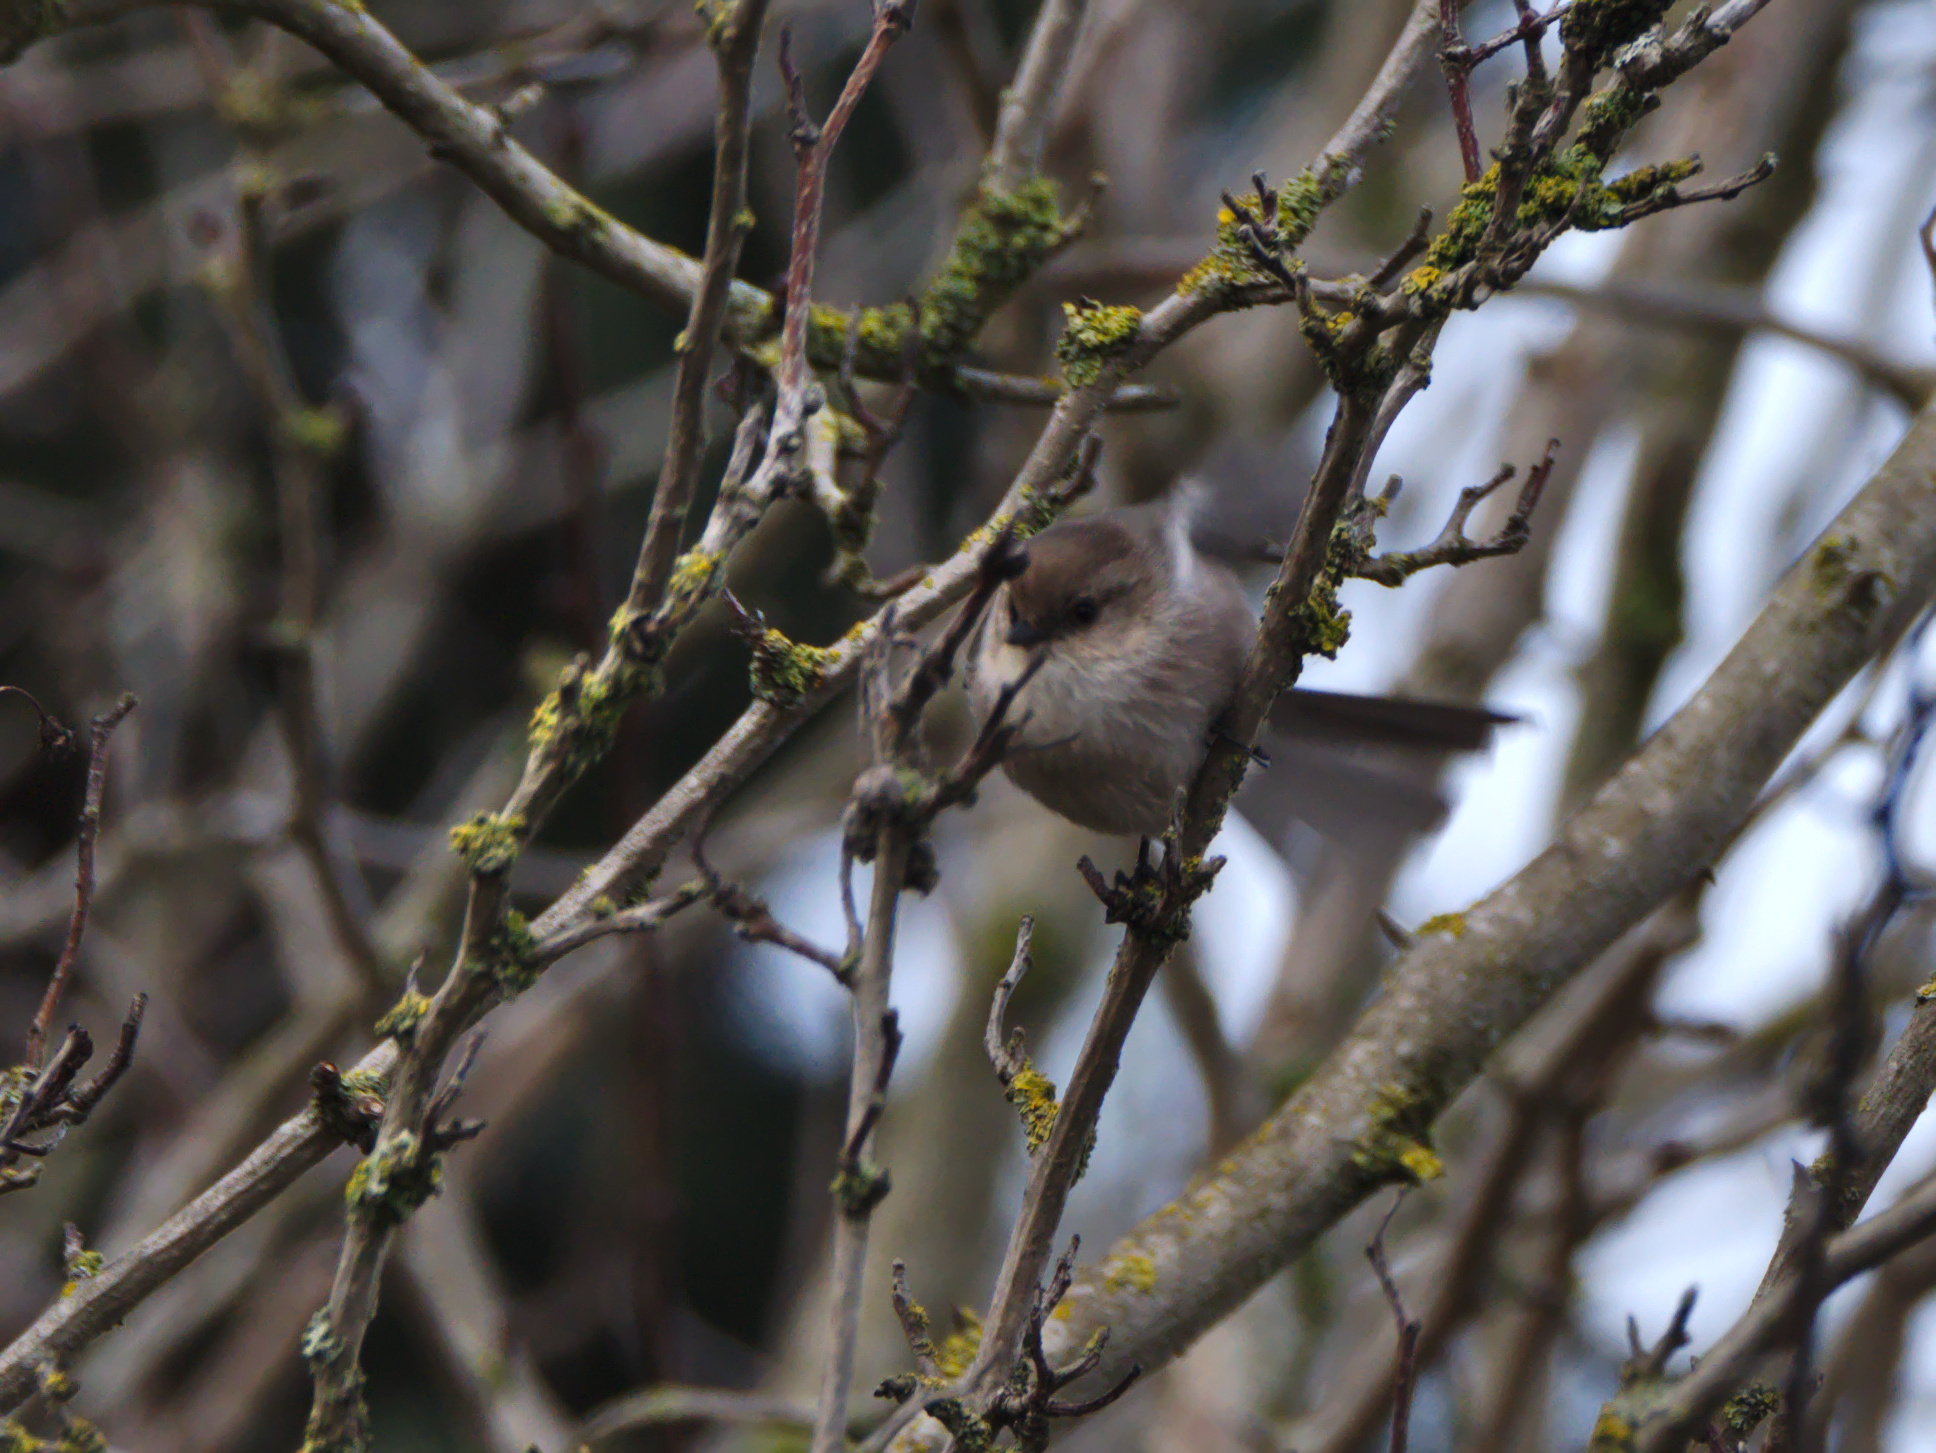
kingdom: Animalia
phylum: Chordata
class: Aves
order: Passeriformes
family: Aegithalidae
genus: Psaltriparus
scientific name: Psaltriparus minimus
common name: American bushtit
